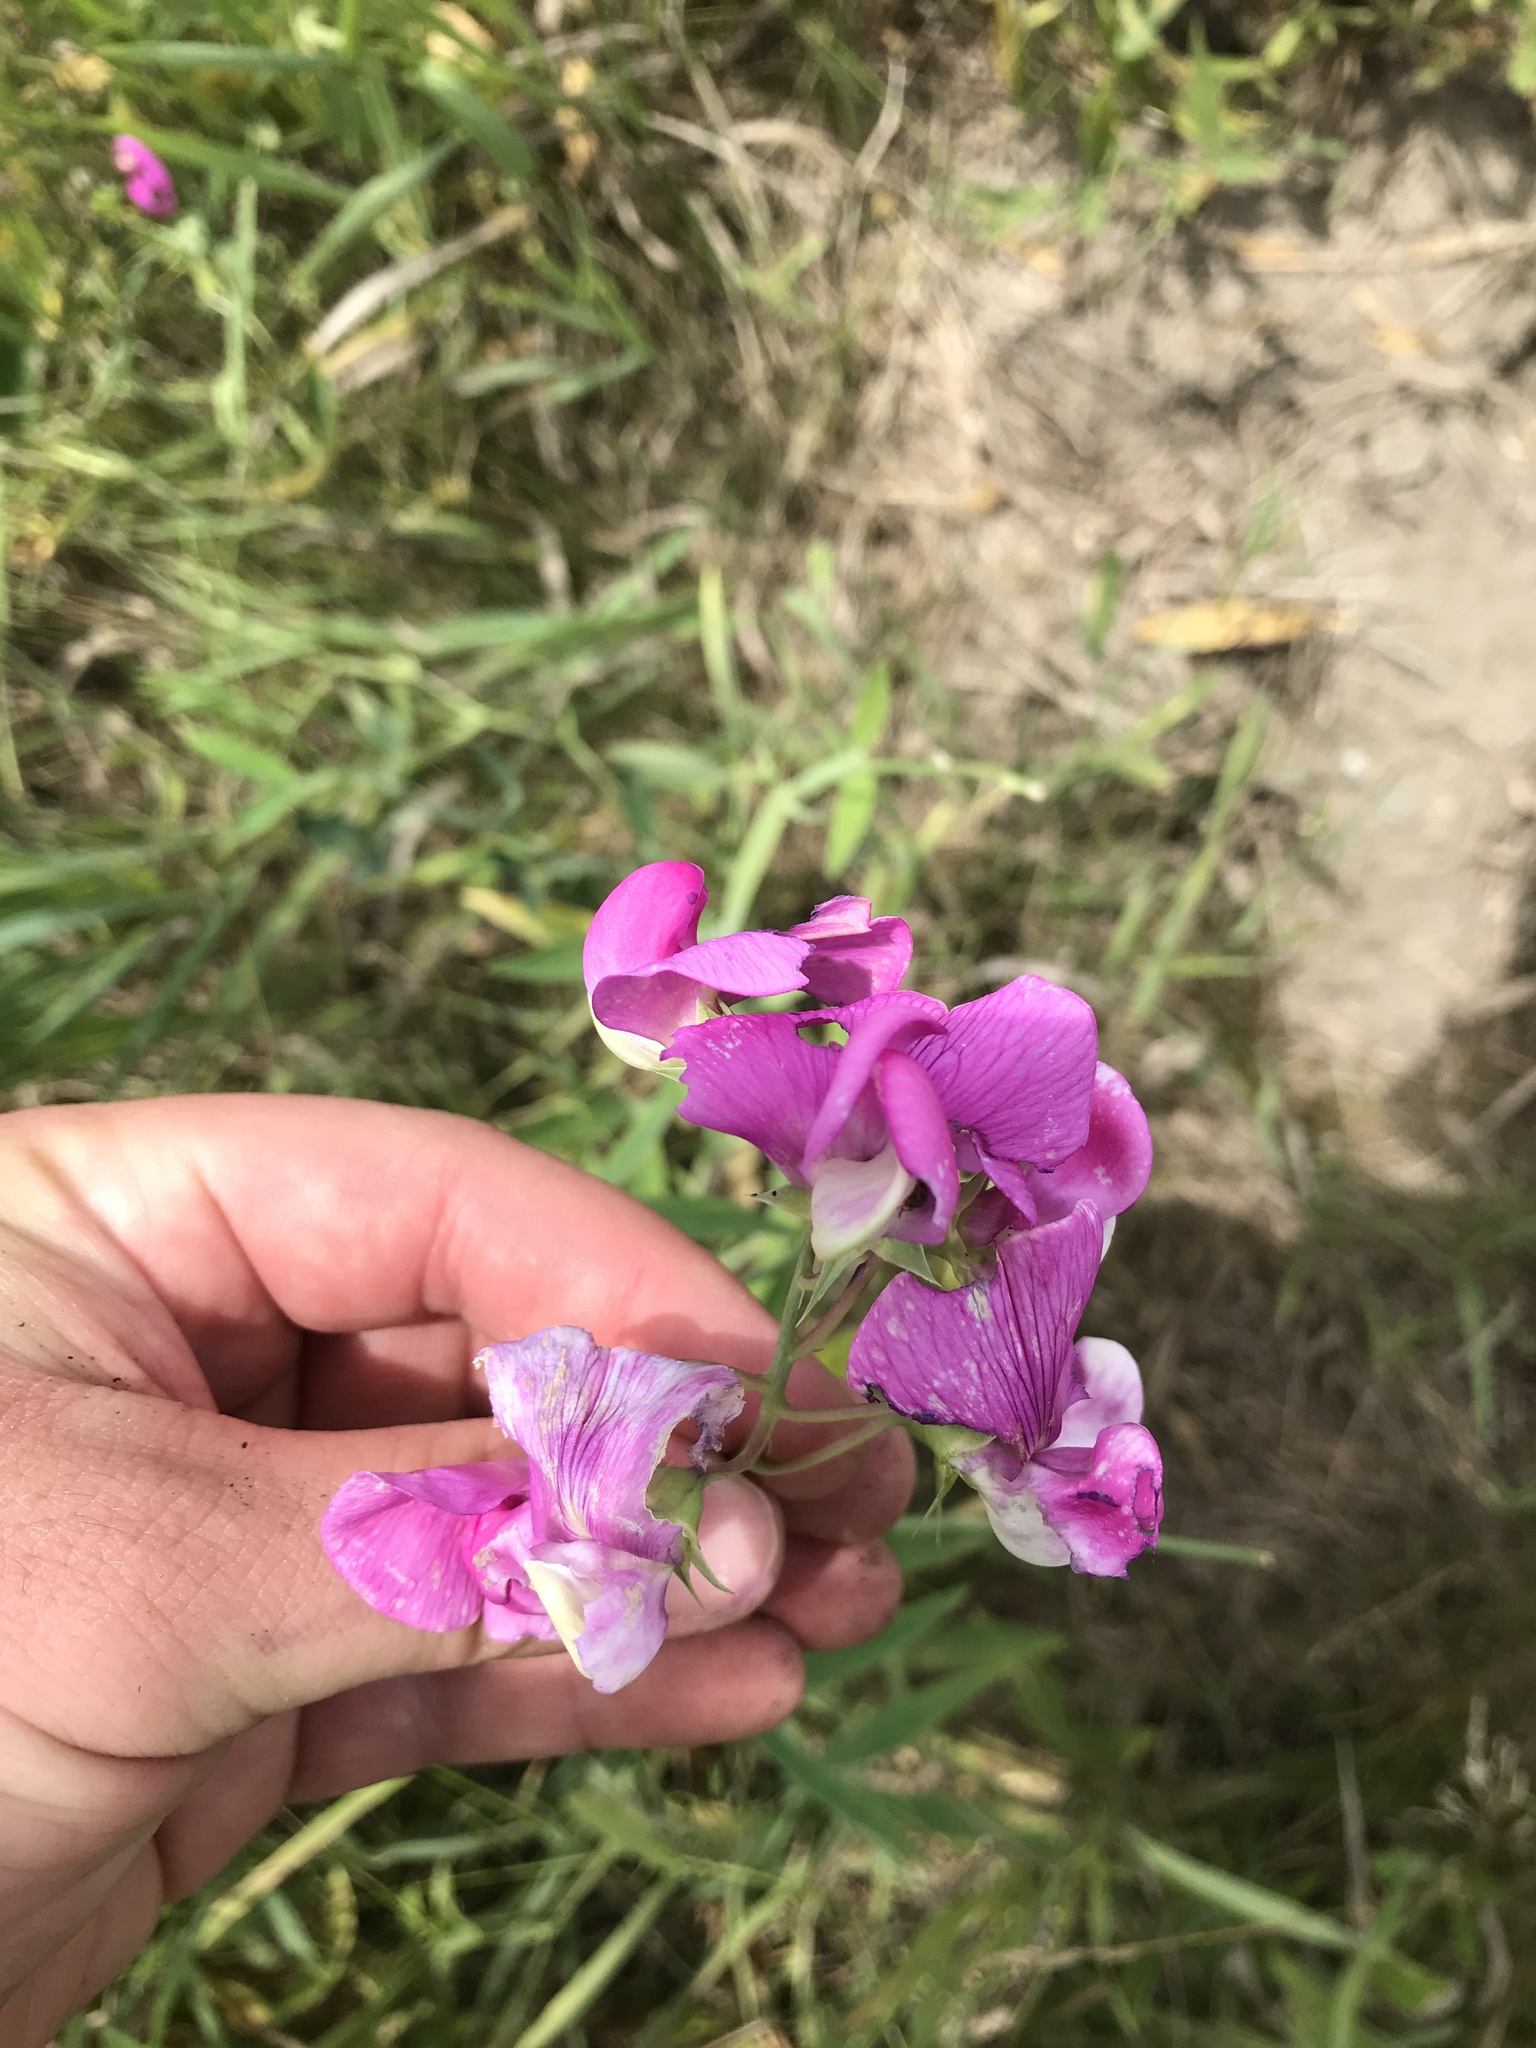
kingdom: Plantae
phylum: Tracheophyta
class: Magnoliopsida
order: Fabales
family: Fabaceae
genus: Lathyrus
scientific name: Lathyrus latifolius
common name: Perennial pea
